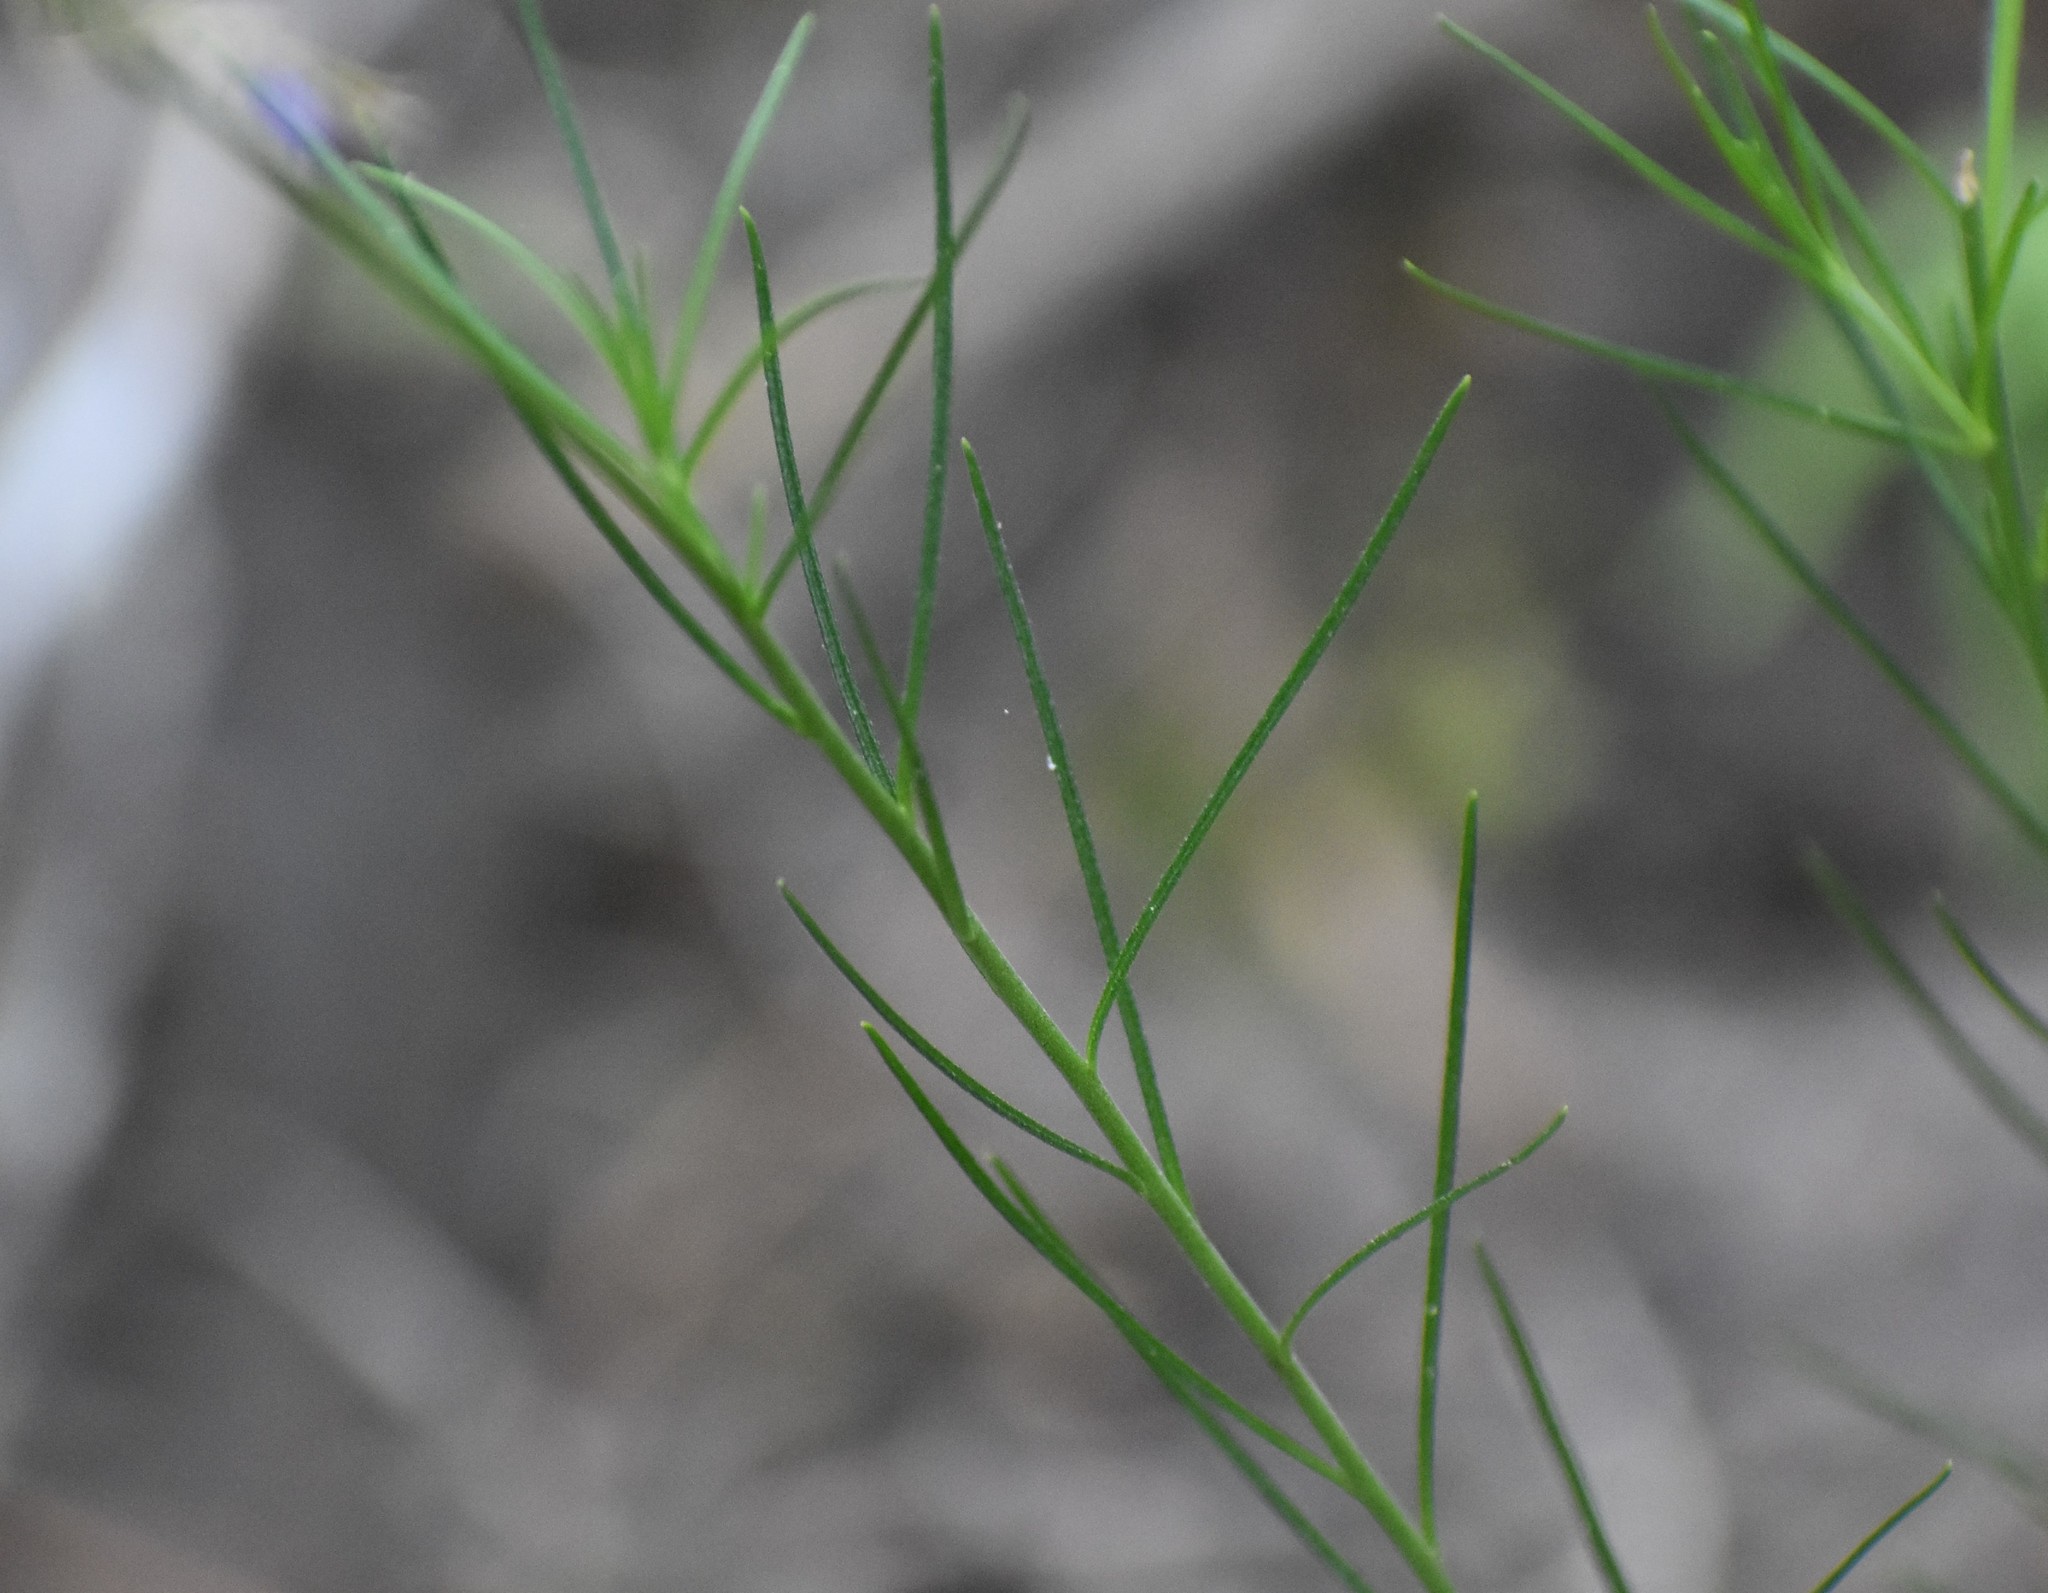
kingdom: Plantae
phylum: Tracheophyta
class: Magnoliopsida
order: Brassicales
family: Brassicaceae
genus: Heliophila
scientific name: Heliophila subulata
